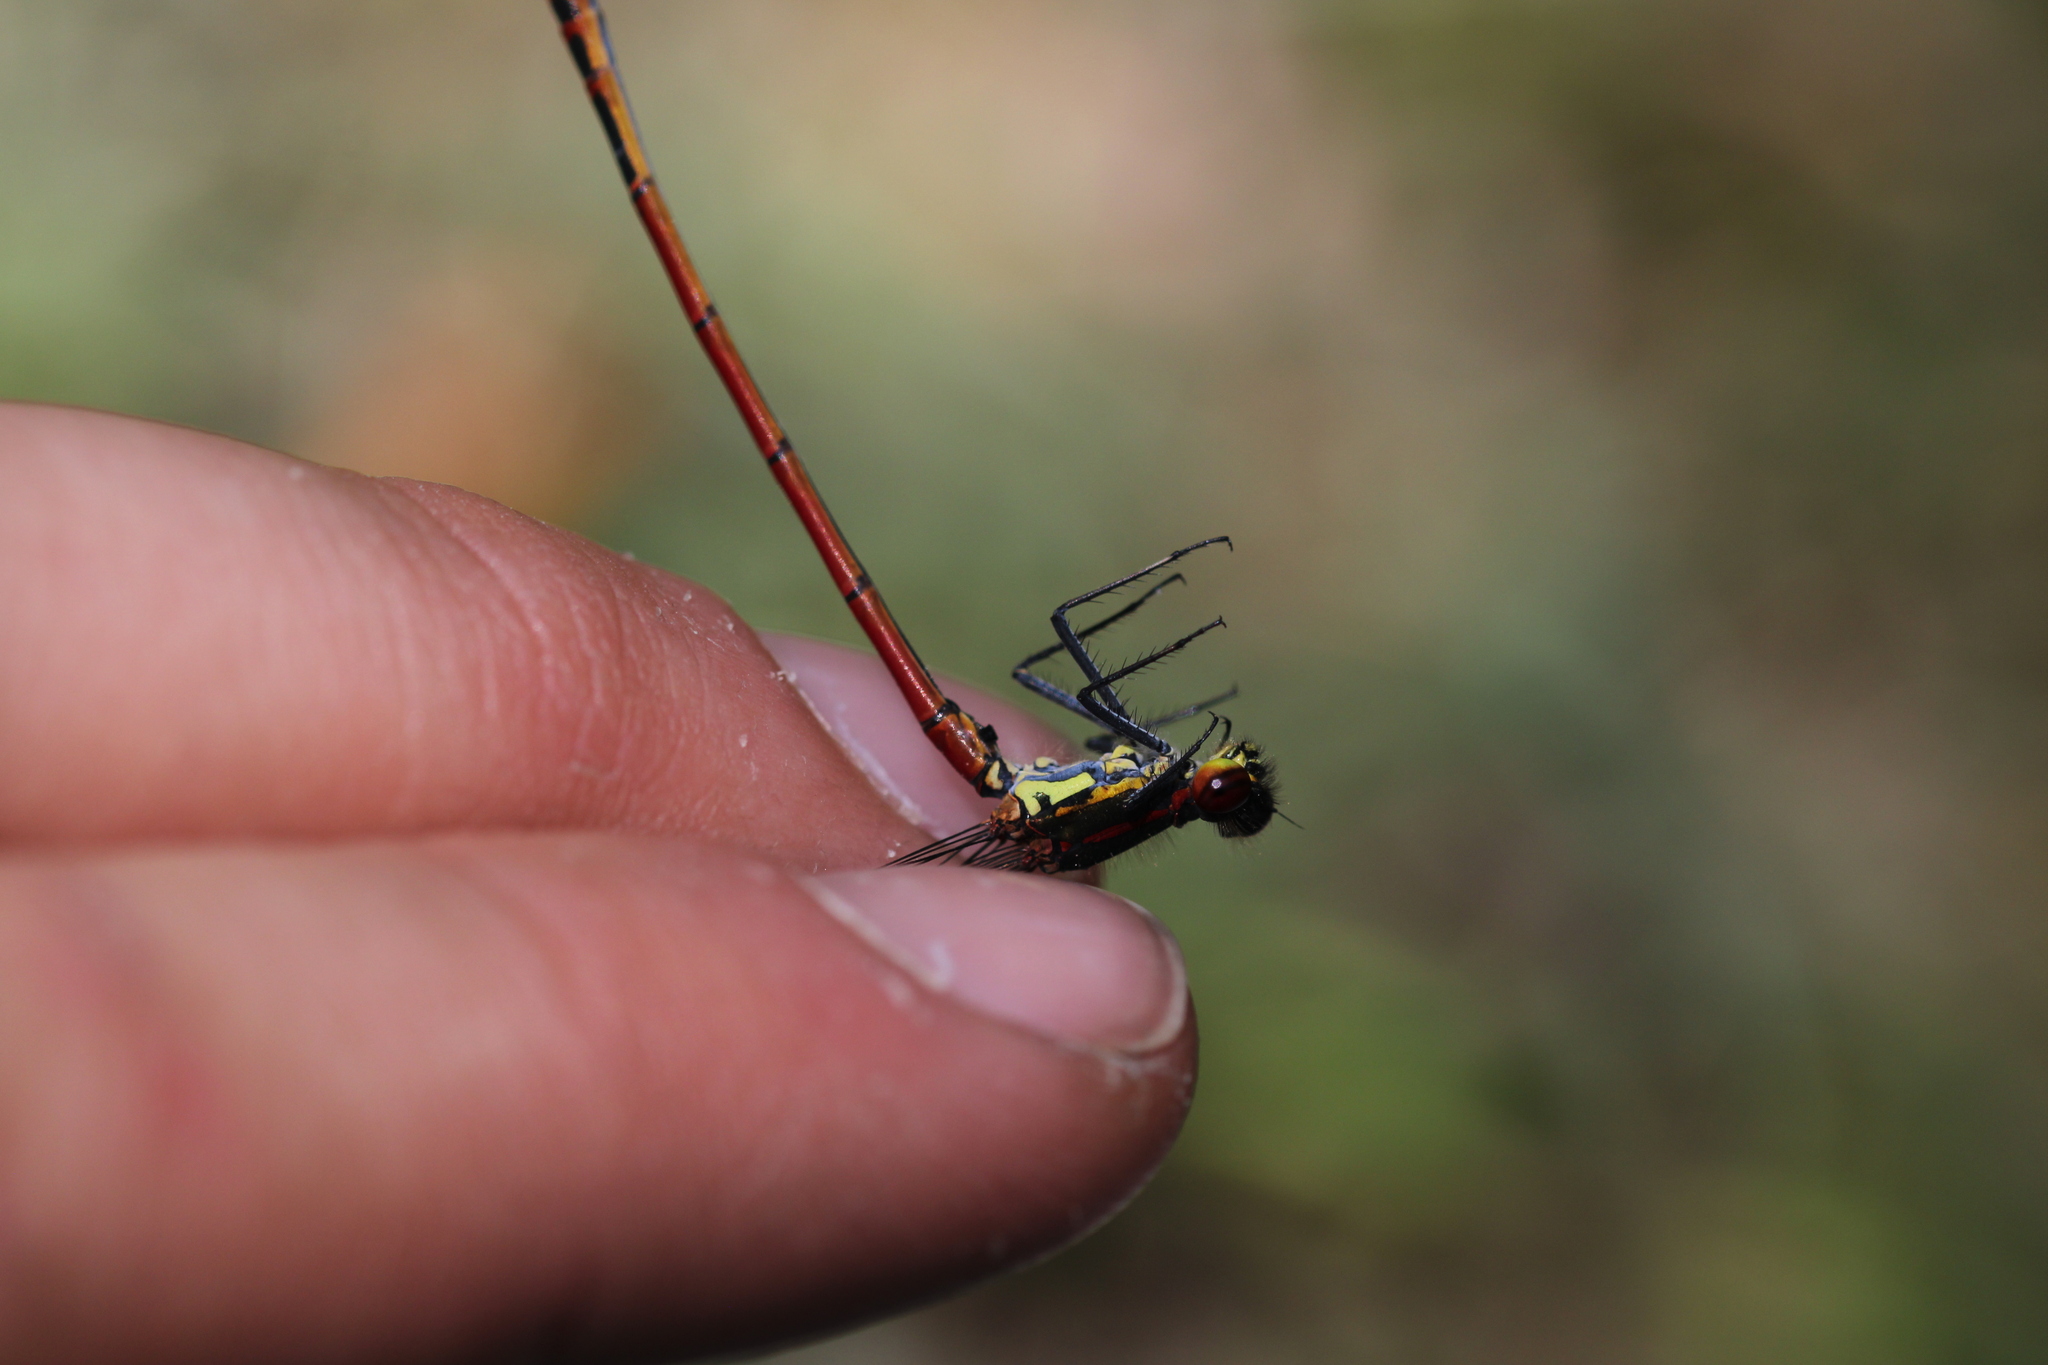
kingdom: Animalia
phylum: Arthropoda
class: Insecta
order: Odonata
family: Coenagrionidae
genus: Pyrrhosoma
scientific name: Pyrrhosoma nymphula
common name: Large red damsel
